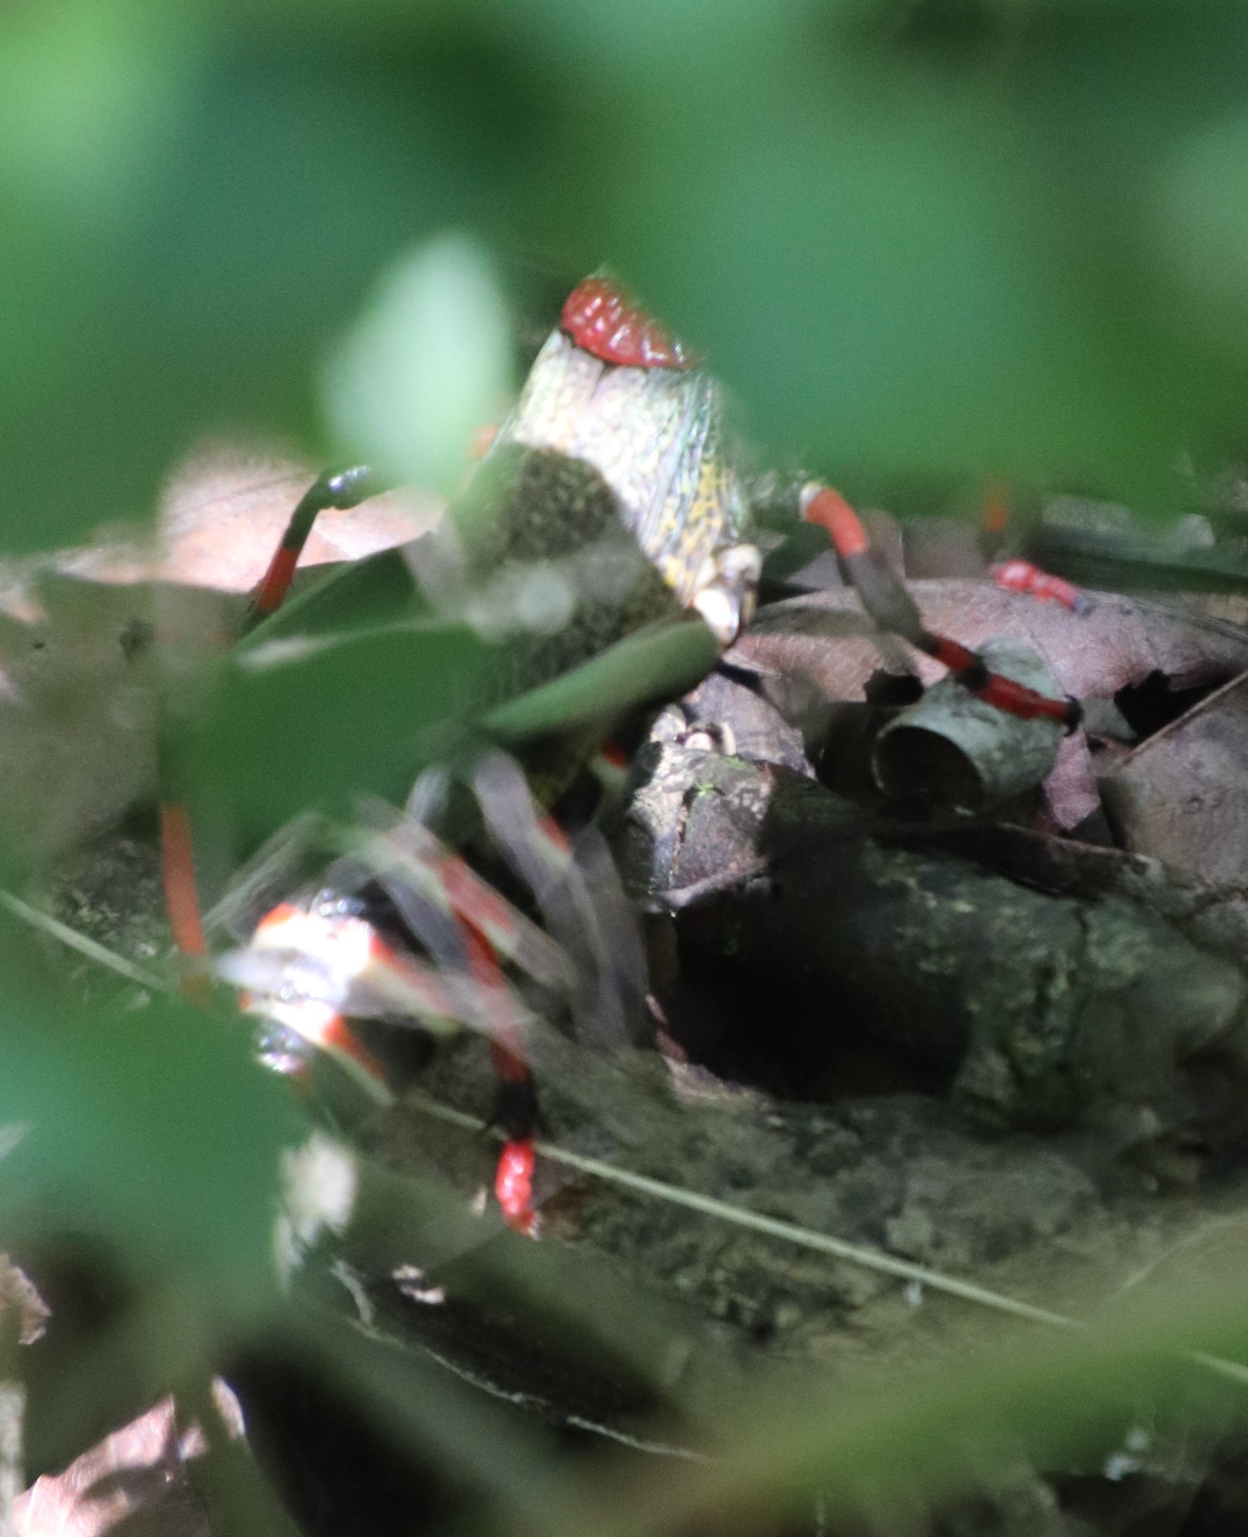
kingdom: Animalia
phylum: Arthropoda
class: Insecta
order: Orthoptera
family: Pyrgomorphidae
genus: Dictyophorus
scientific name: Dictyophorus spumans
